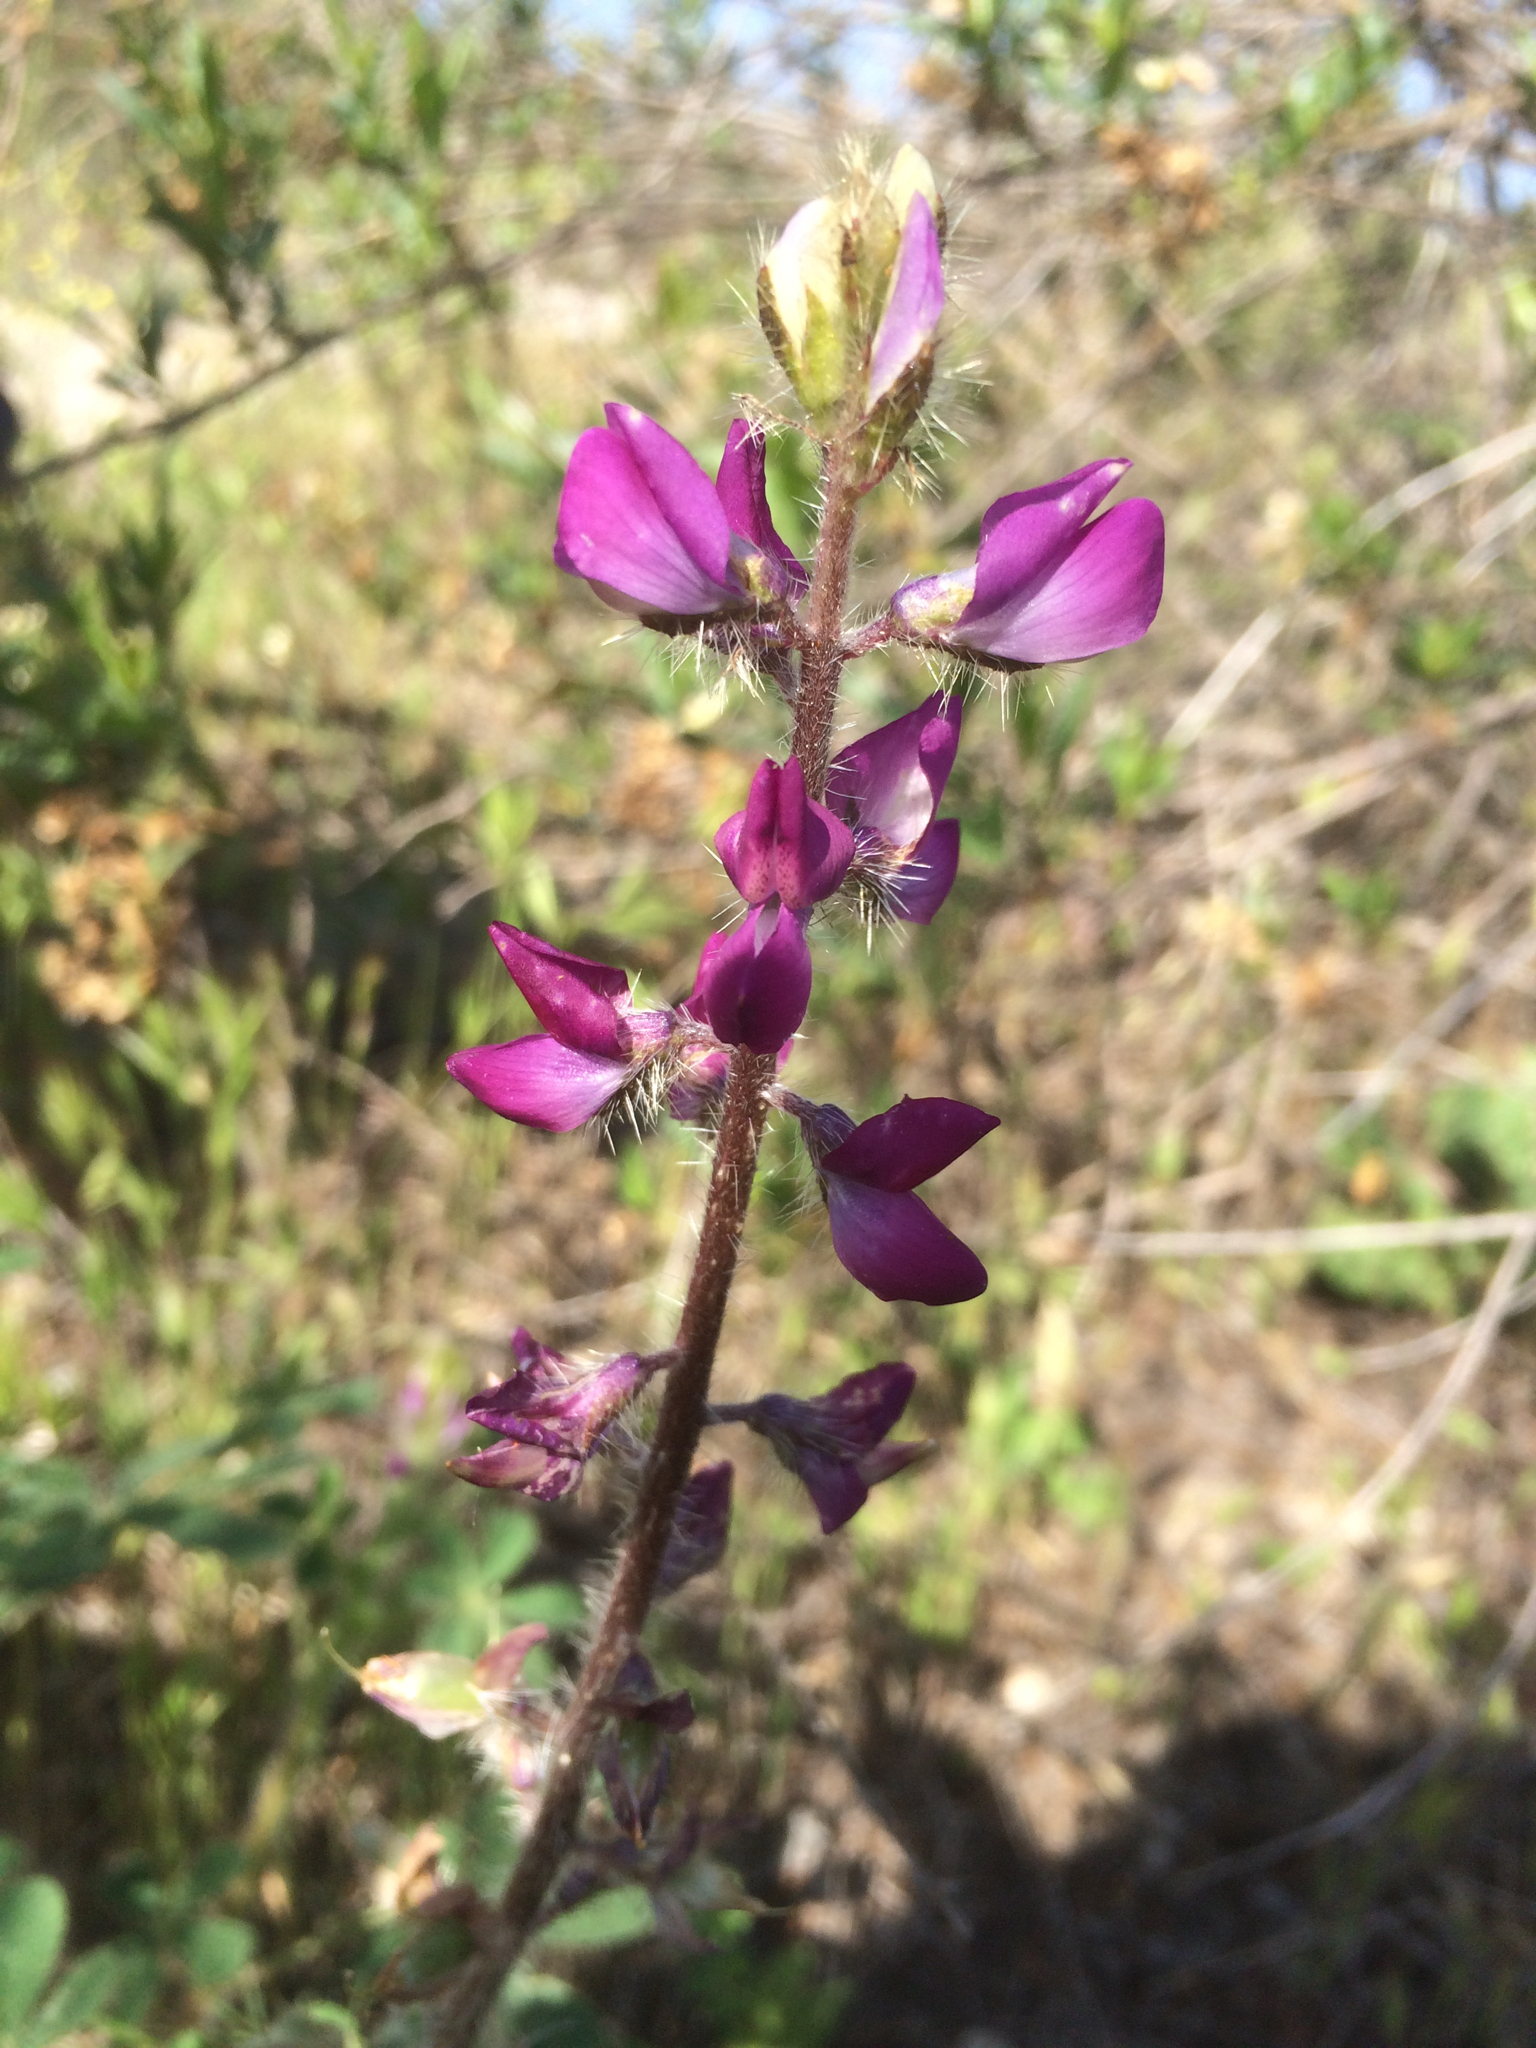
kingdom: Plantae
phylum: Tracheophyta
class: Magnoliopsida
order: Fabales
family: Fabaceae
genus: Lupinus
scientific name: Lupinus hirsutissimus
